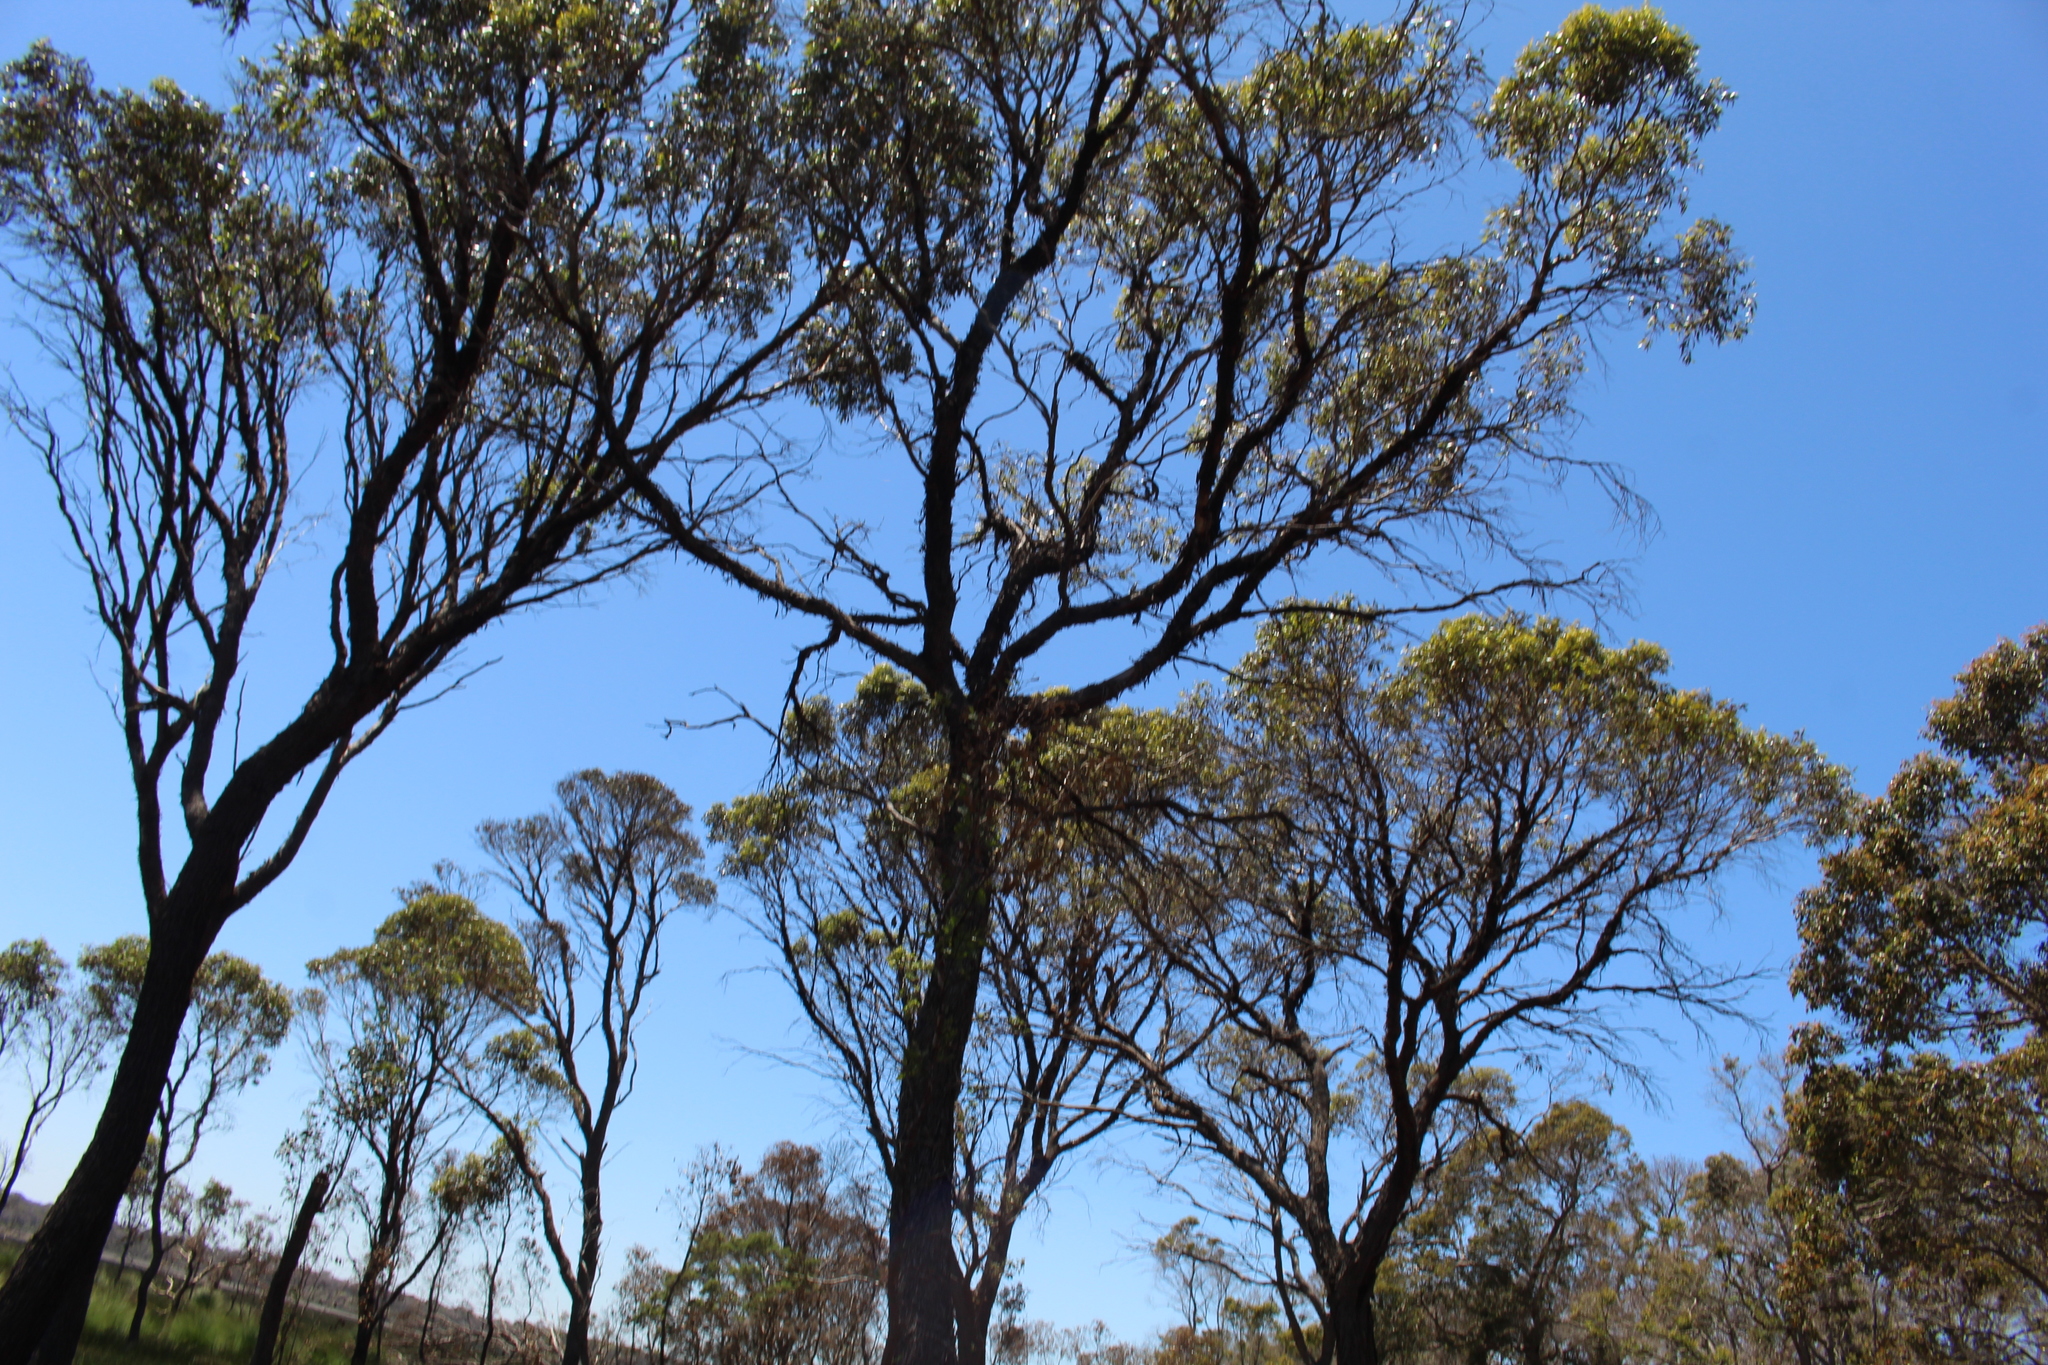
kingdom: Plantae
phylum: Tracheophyta
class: Magnoliopsida
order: Myrtales
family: Myrtaceae
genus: Eucalyptus
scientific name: Eucalyptus occidentalis
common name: Swamp yate
